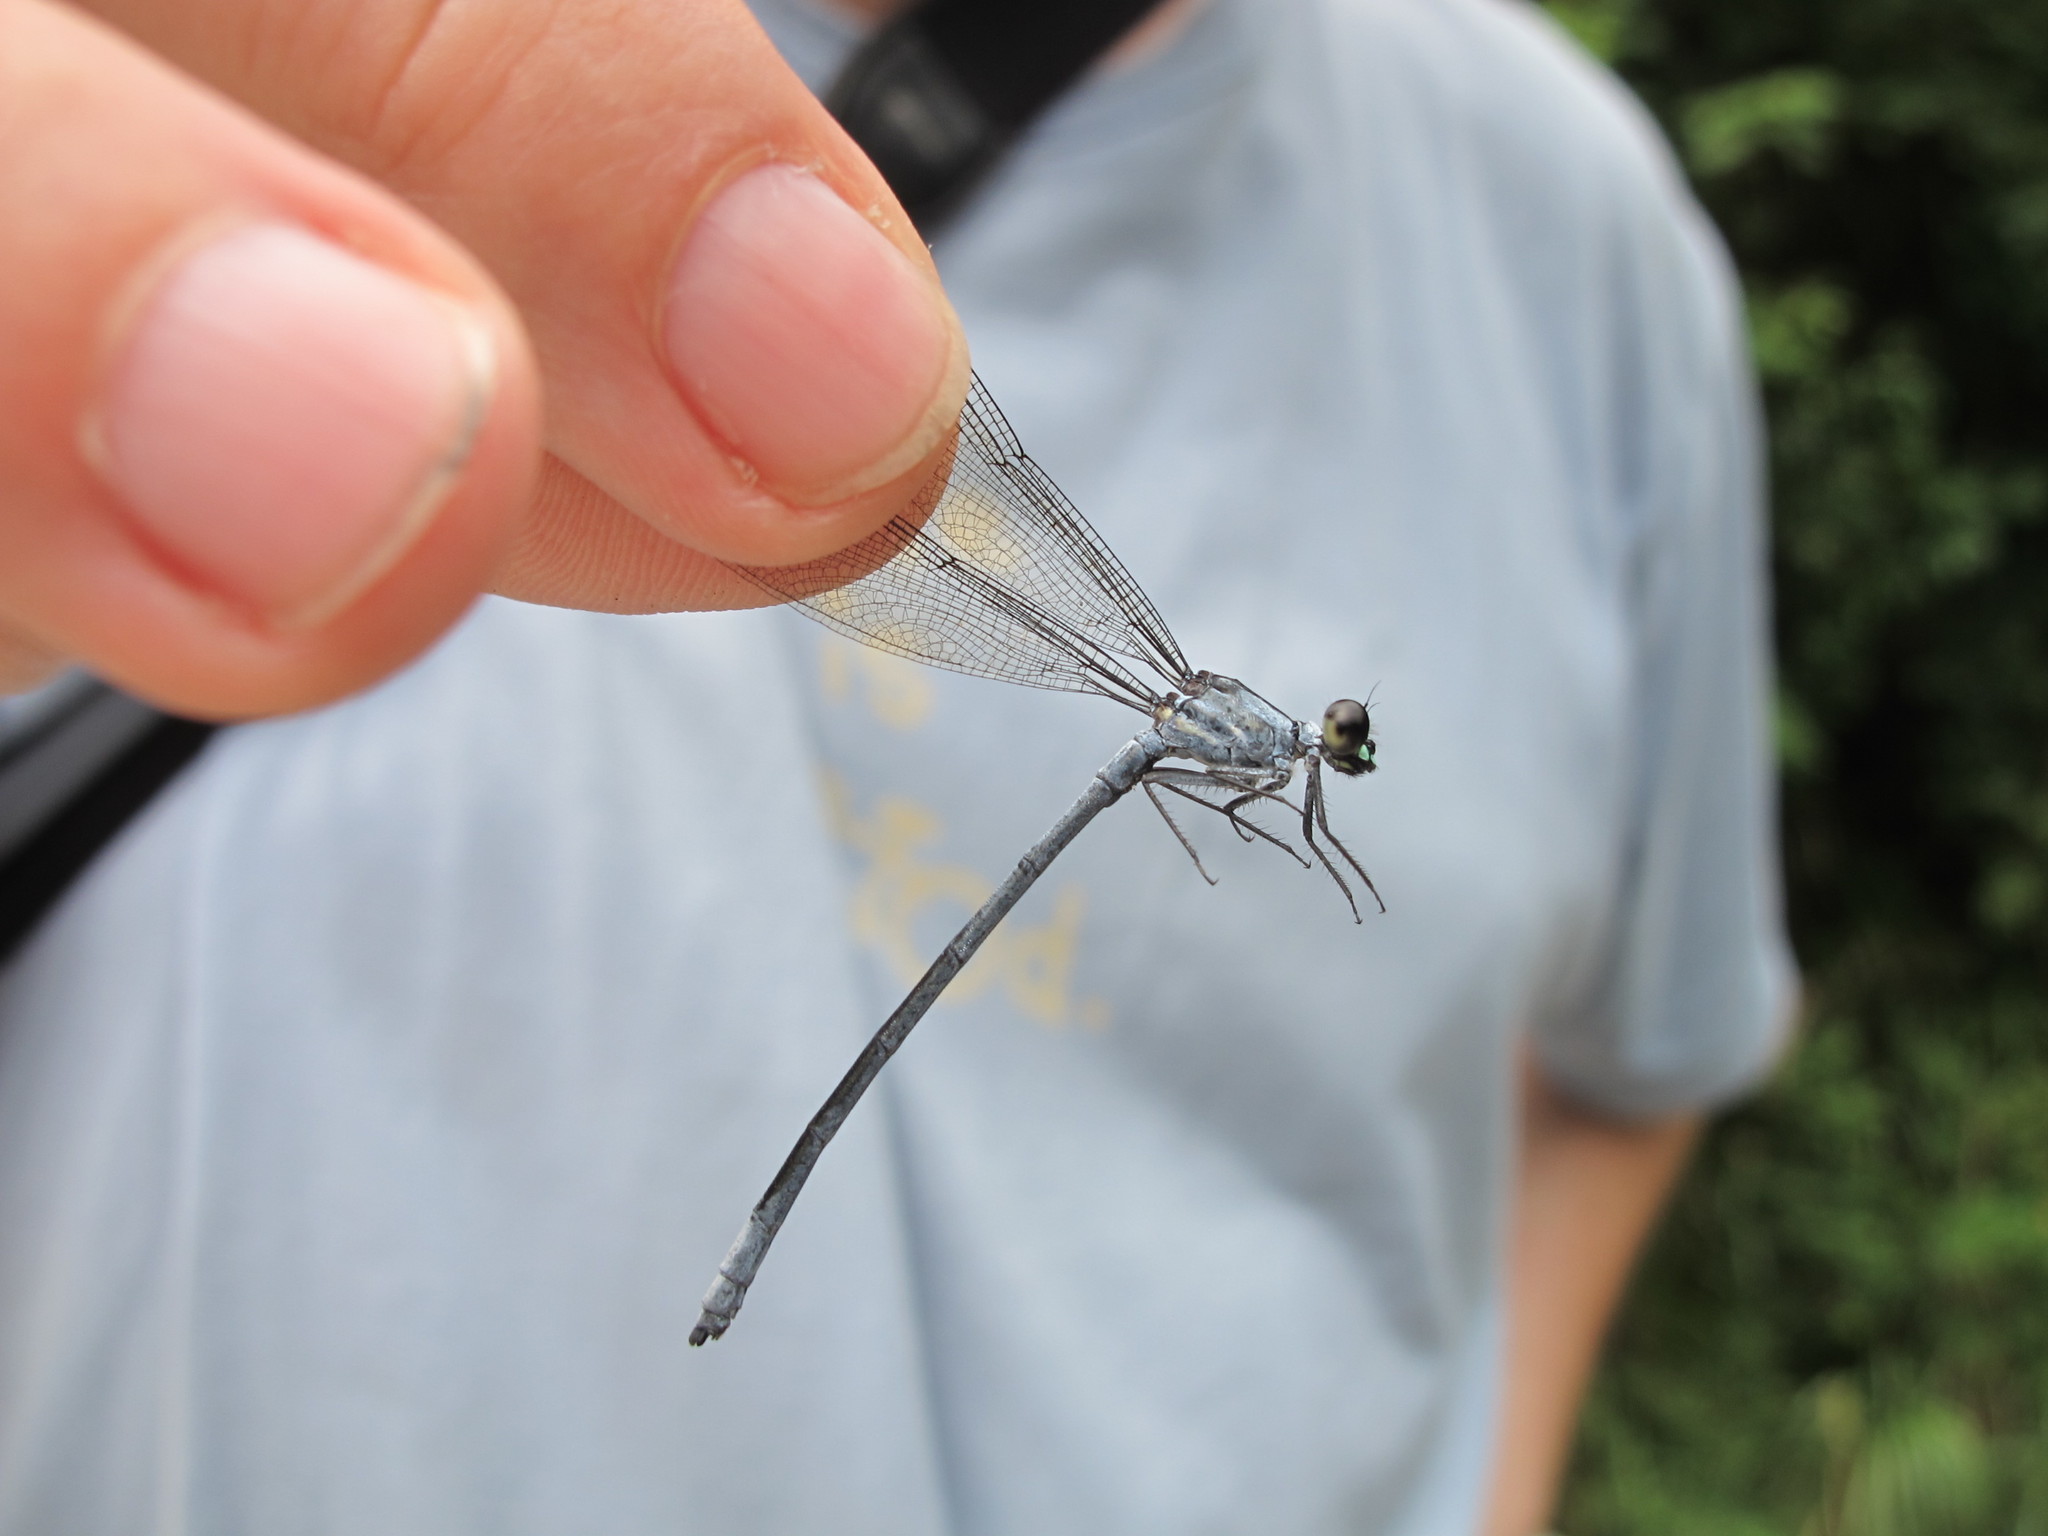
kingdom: Animalia
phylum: Arthropoda
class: Insecta
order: Odonata
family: Euphaeidae
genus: Bayadera
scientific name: Bayadera brevicauda
